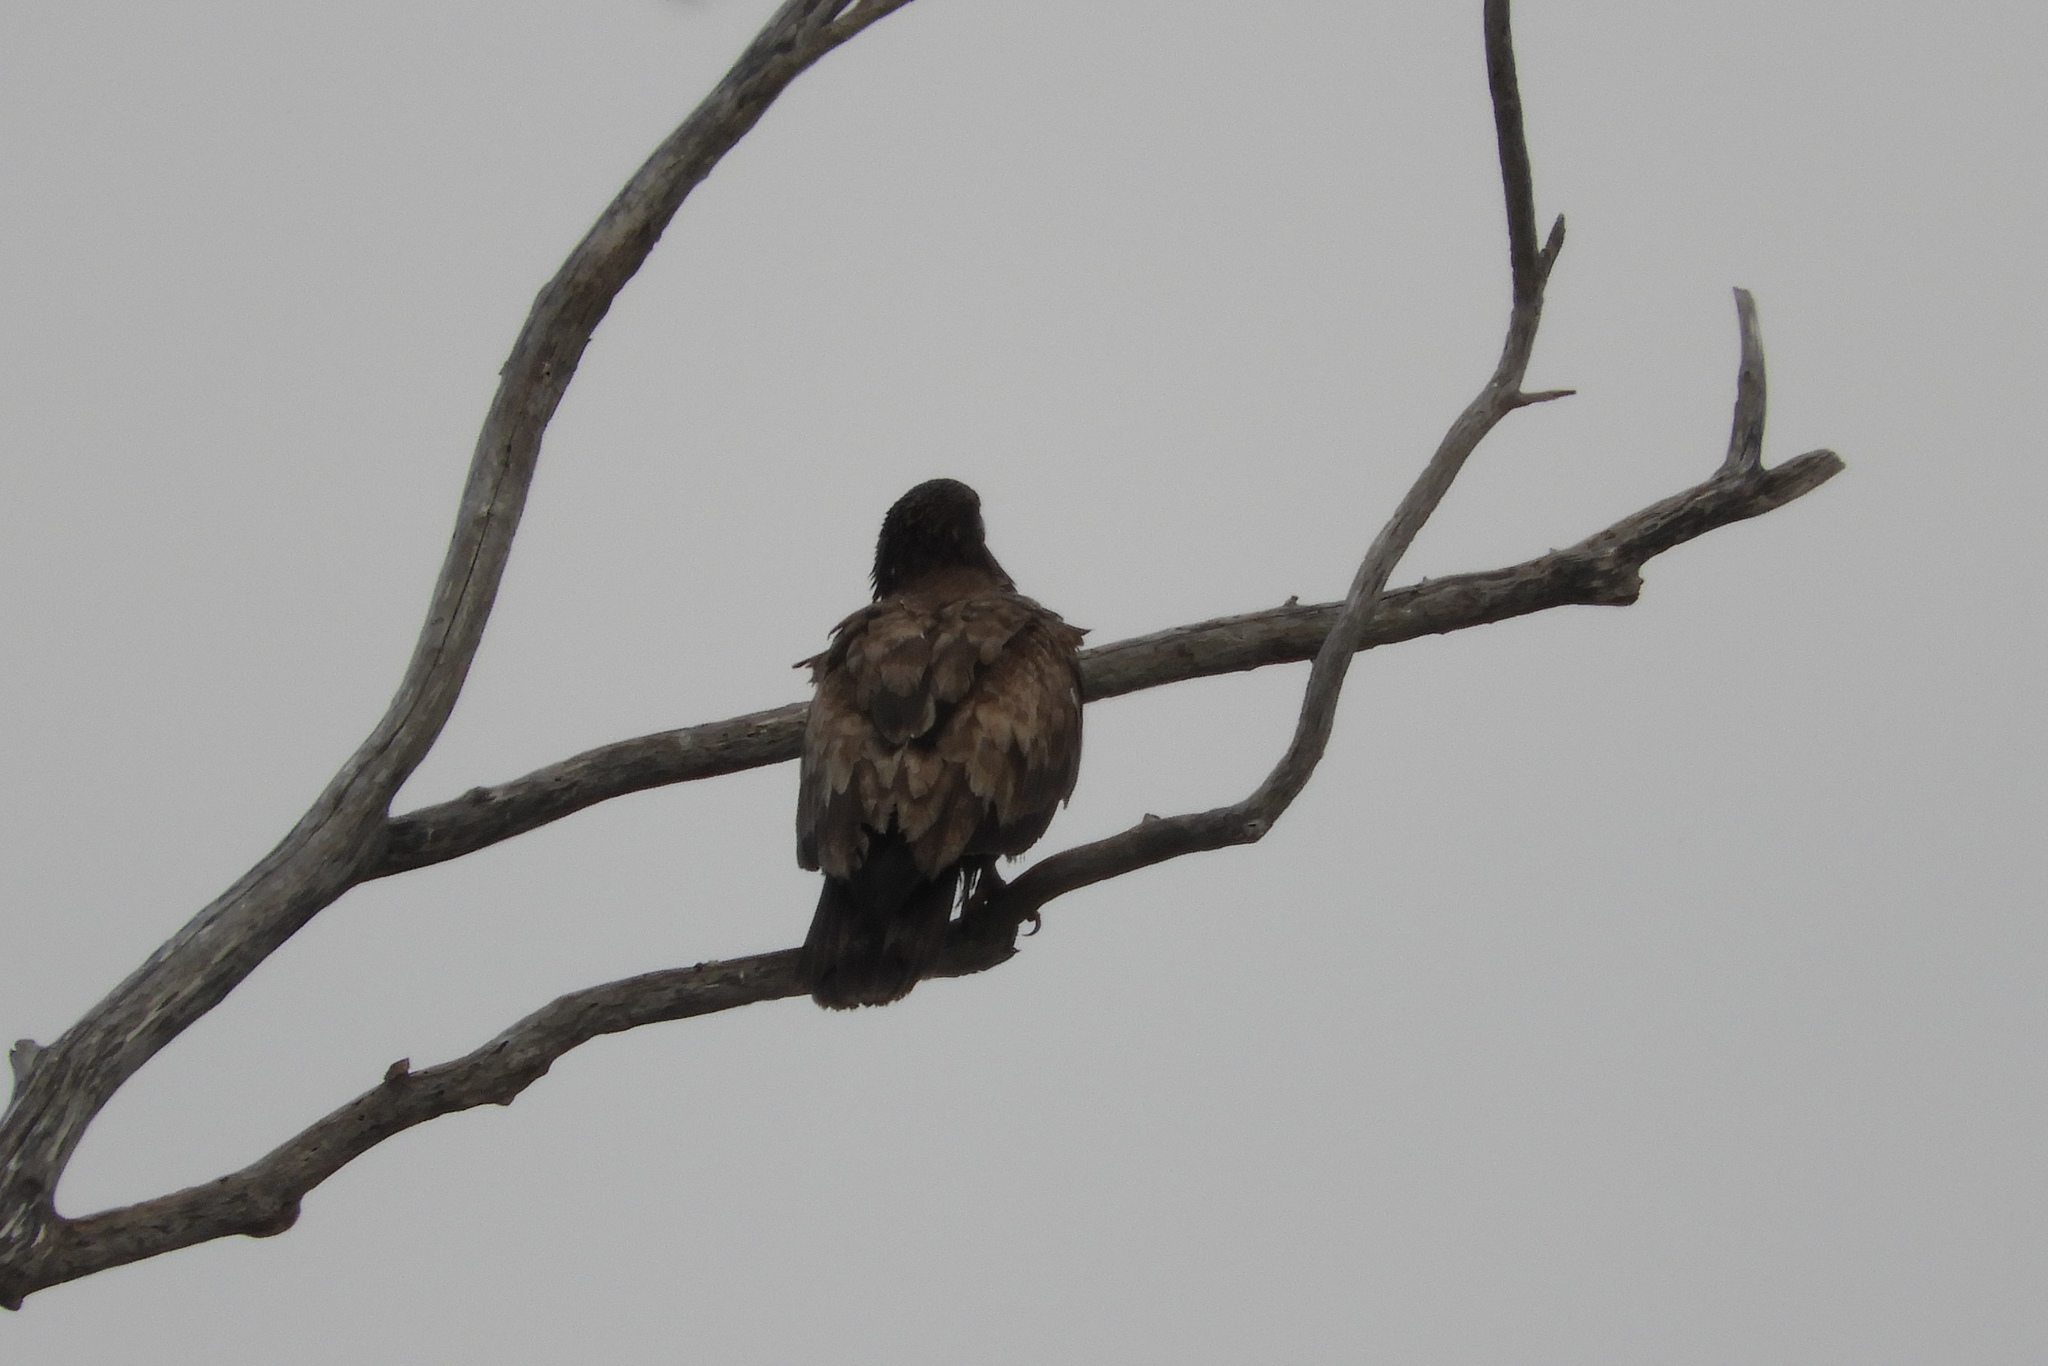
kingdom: Animalia
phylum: Chordata
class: Aves
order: Accipitriformes
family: Accipitridae
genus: Haliaeetus
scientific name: Haliaeetus leucocephalus
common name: Bald eagle
